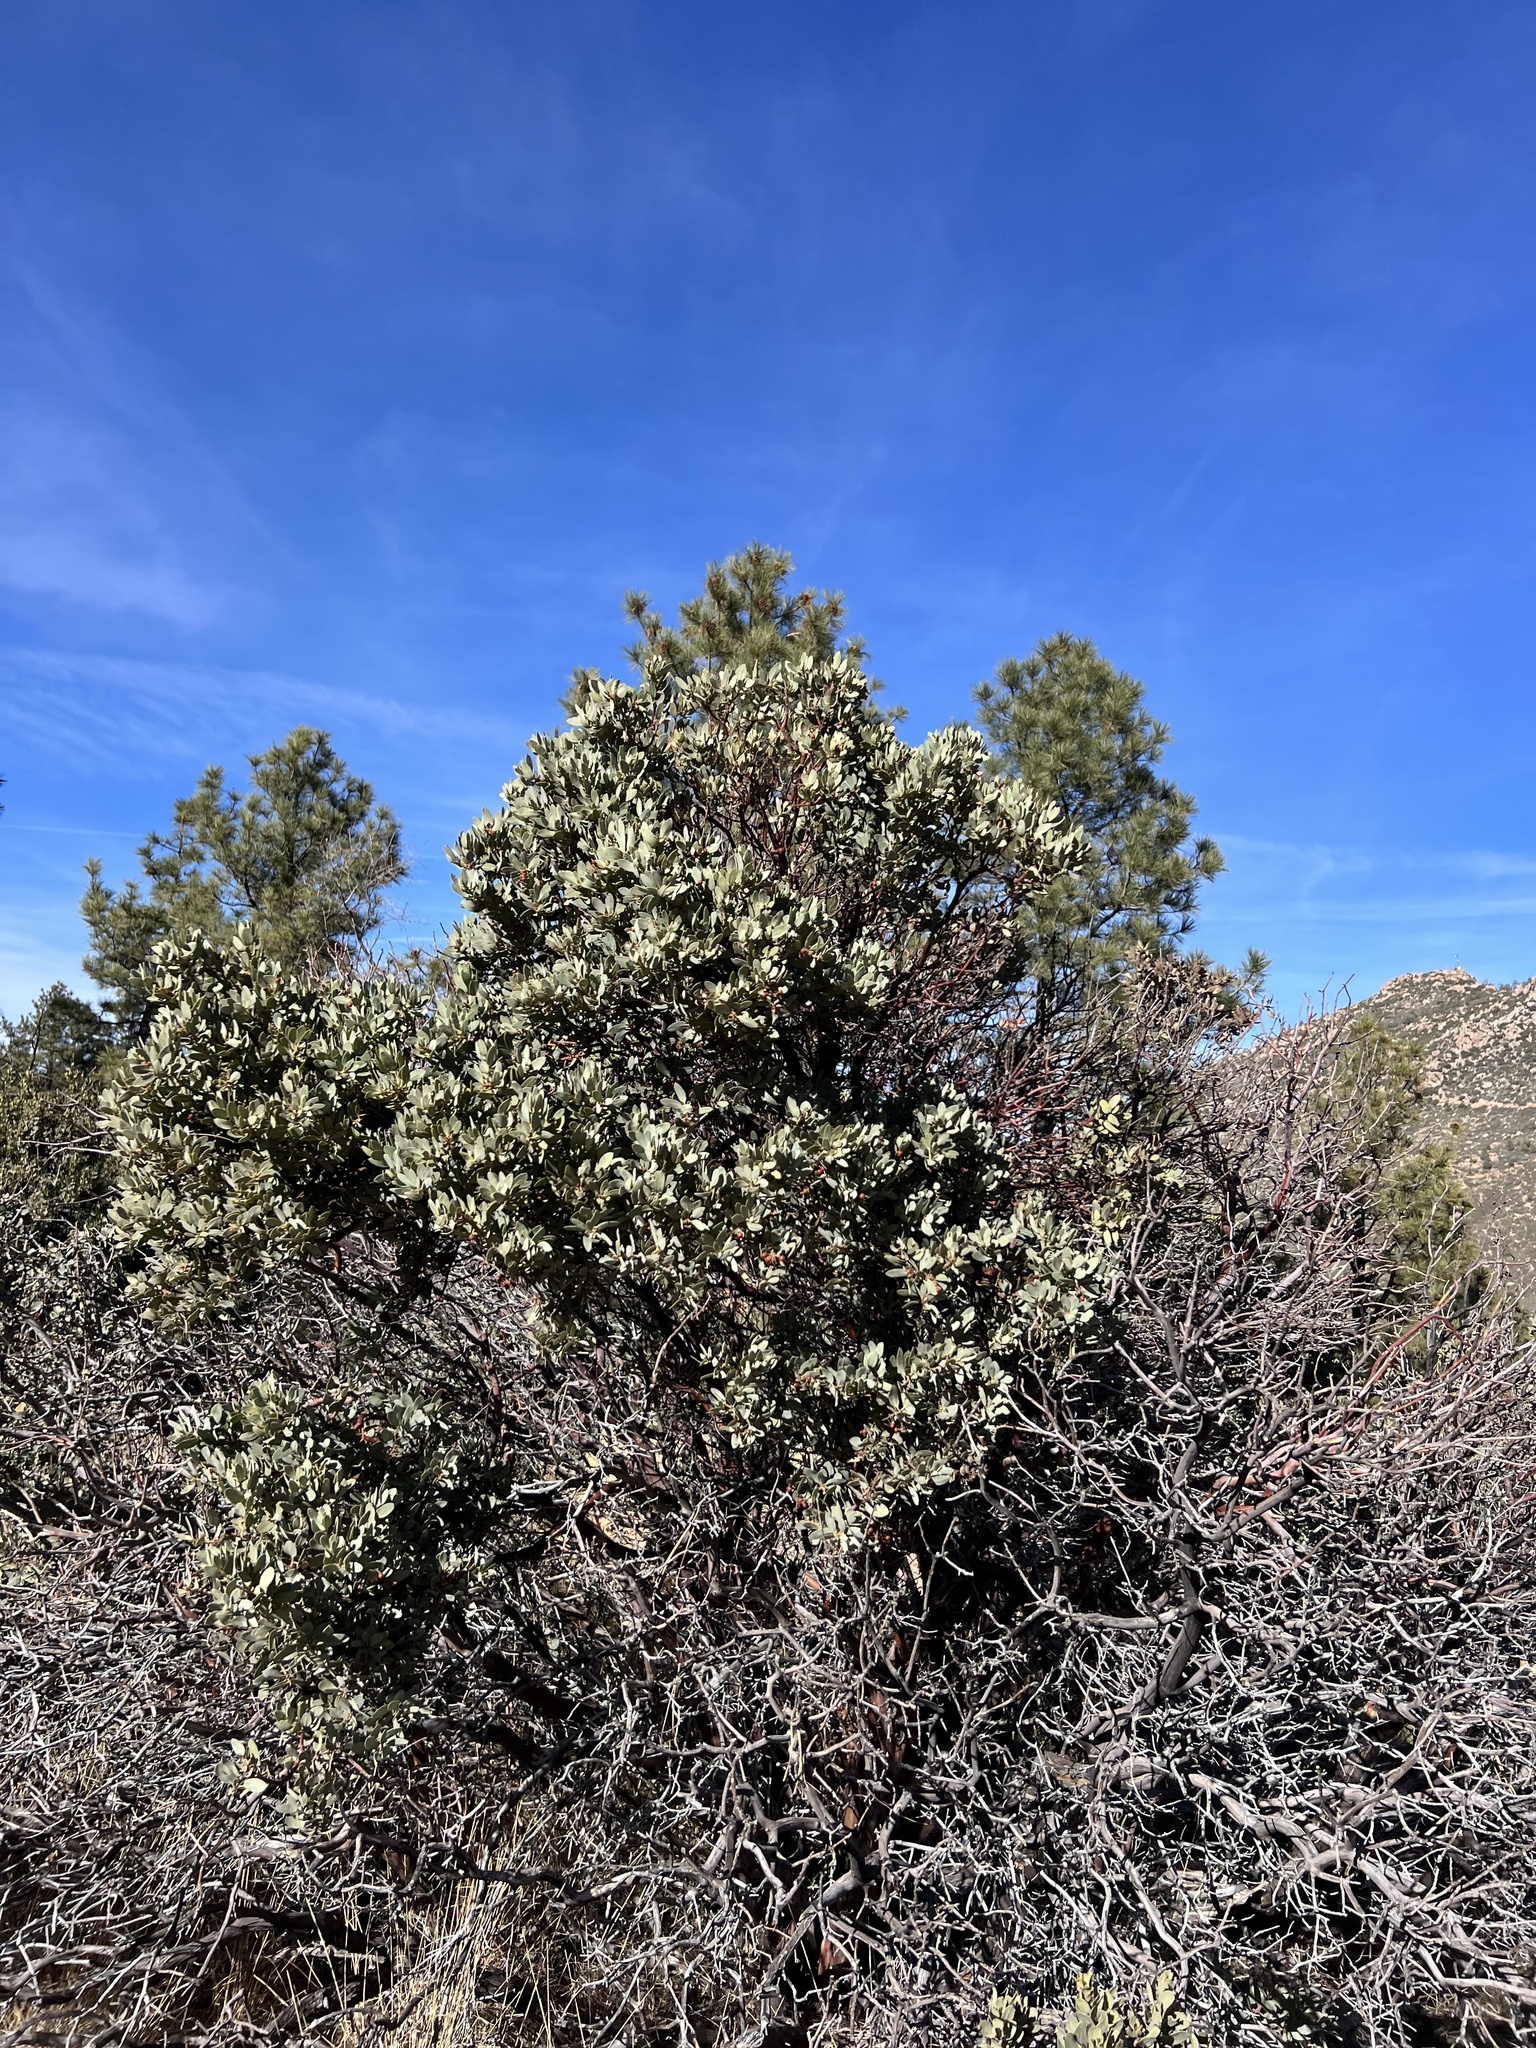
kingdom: Plantae
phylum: Tracheophyta
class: Magnoliopsida
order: Ericales
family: Ericaceae
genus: Arctostaphylos
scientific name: Arctostaphylos pringlei
